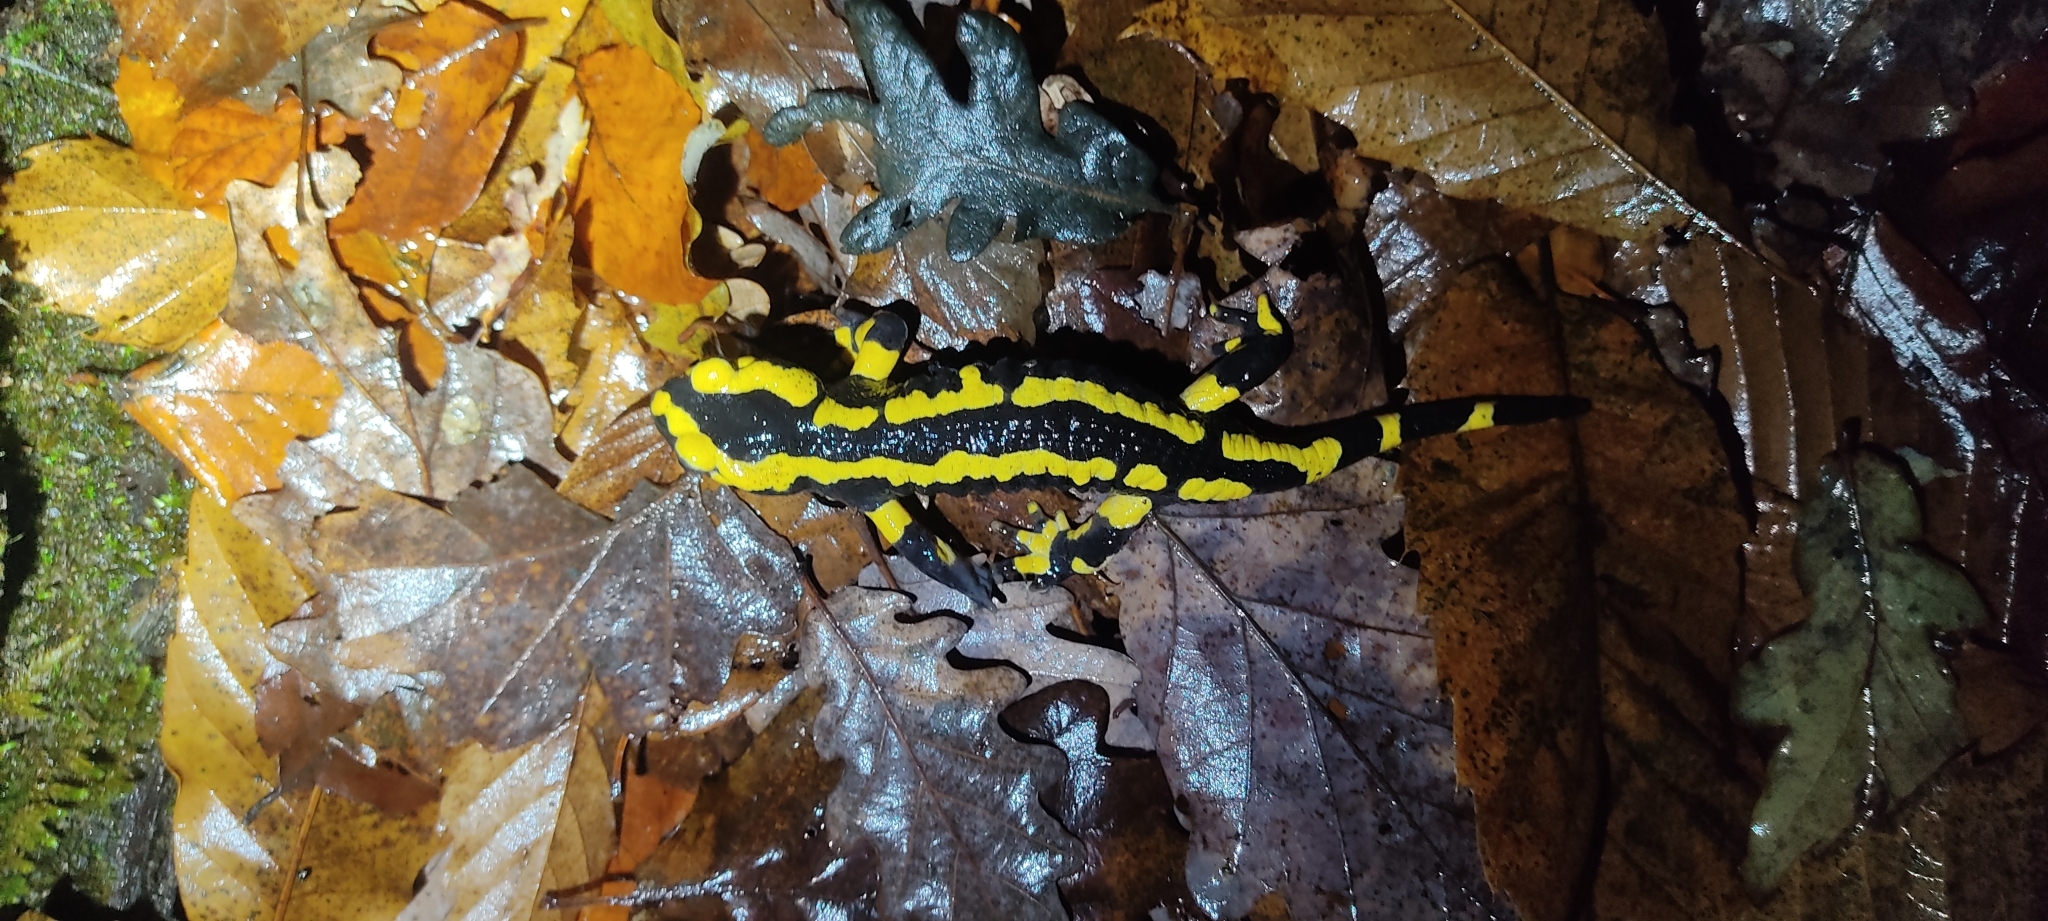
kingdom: Animalia
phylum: Chordata
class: Amphibia
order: Caudata
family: Salamandridae
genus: Salamandra
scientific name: Salamandra salamandra
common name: Fire salamander
